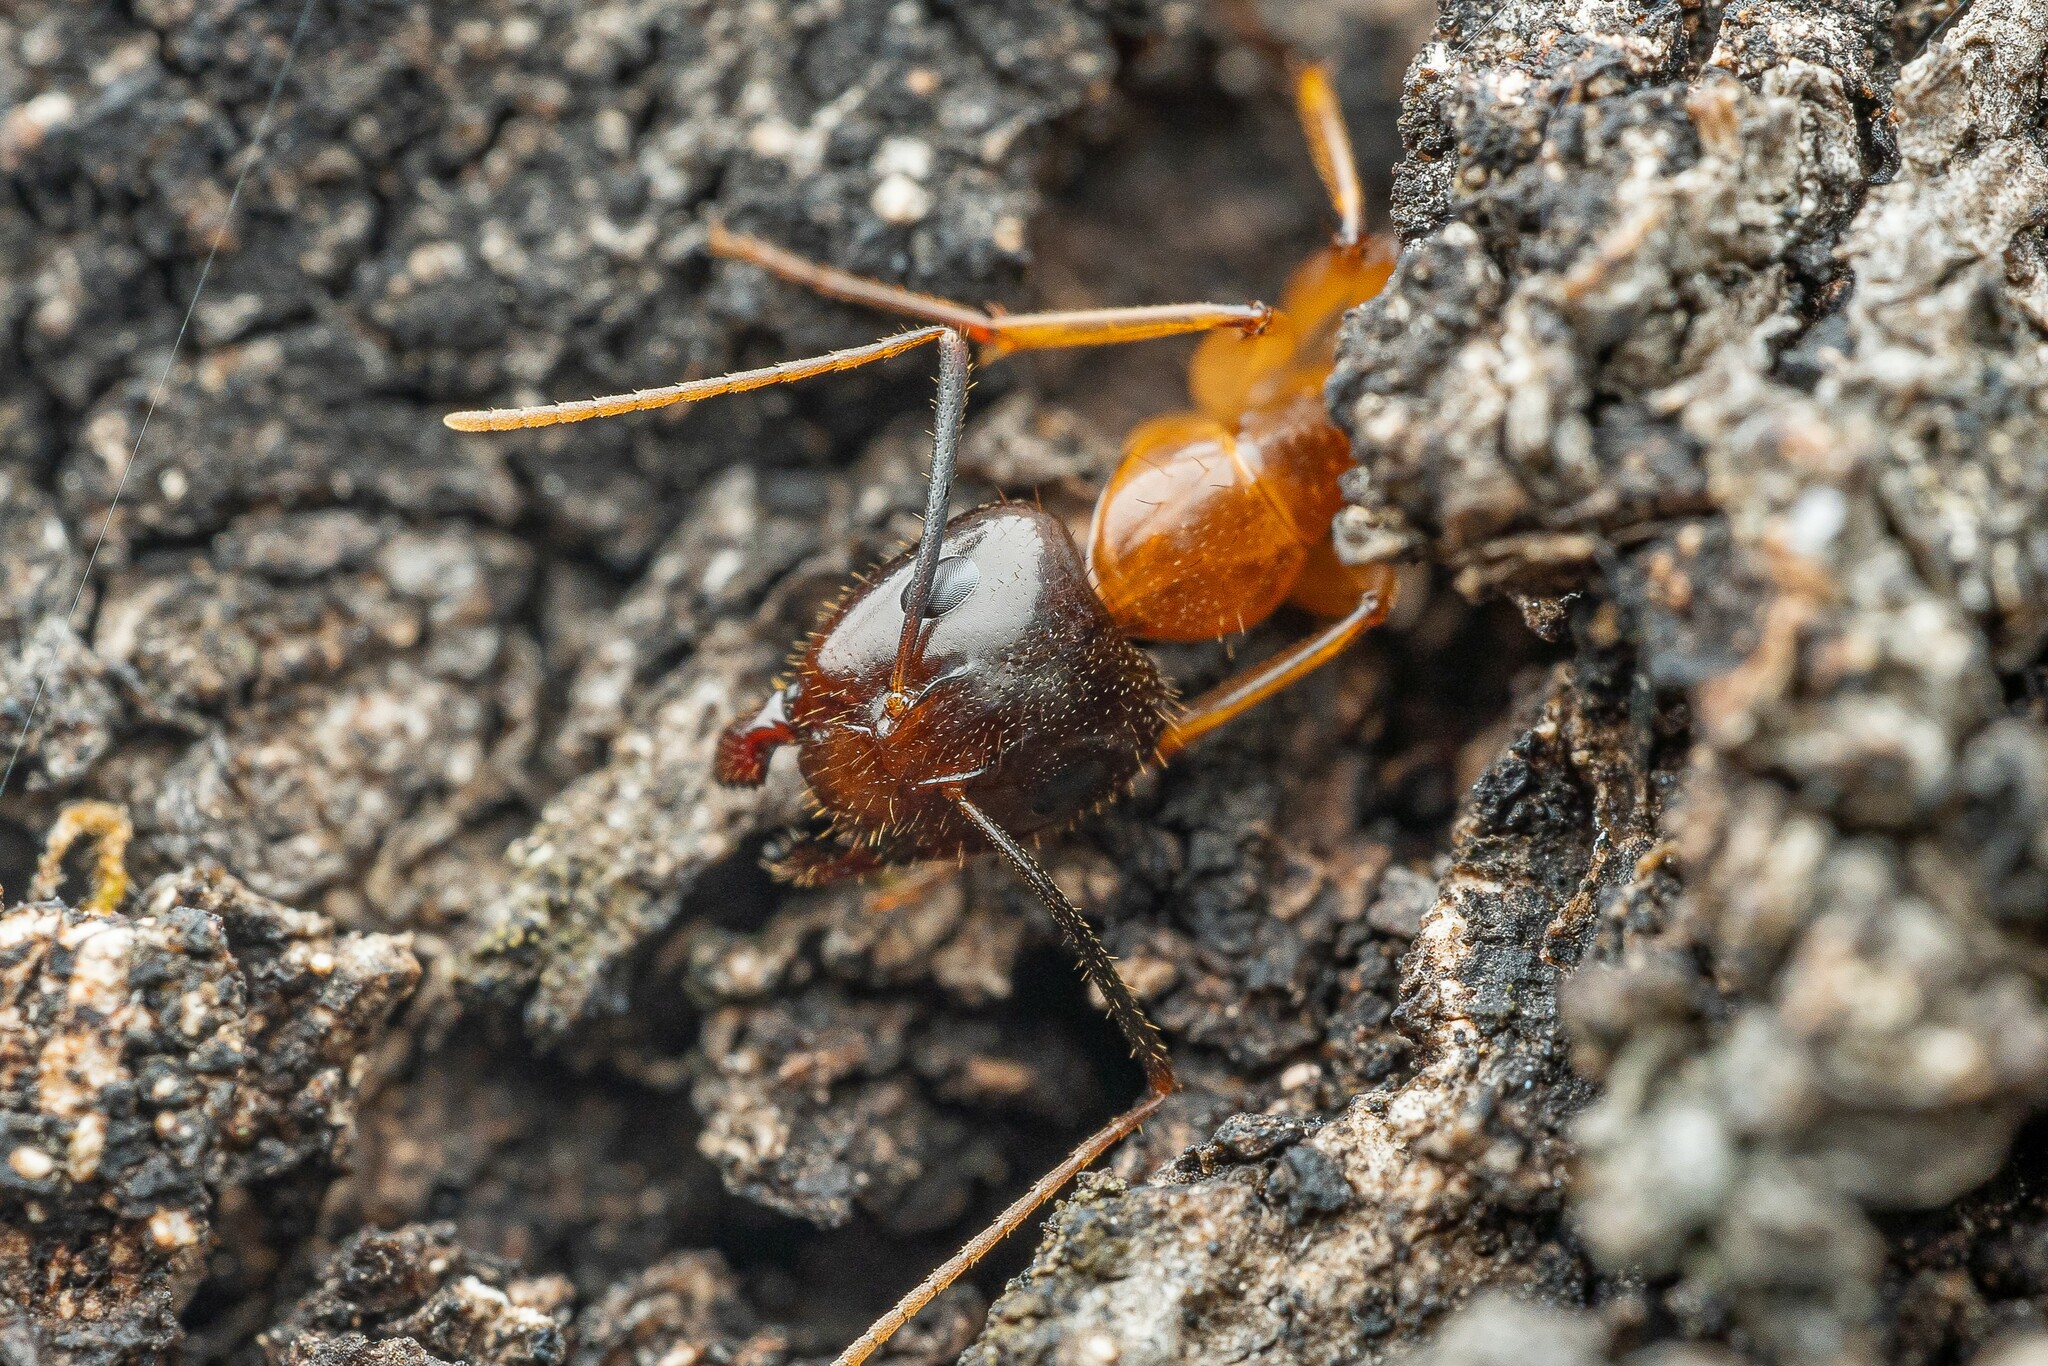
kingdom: Animalia
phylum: Arthropoda
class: Insecta
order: Hymenoptera
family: Formicidae
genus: Camponotus
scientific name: Camponotus vafer
